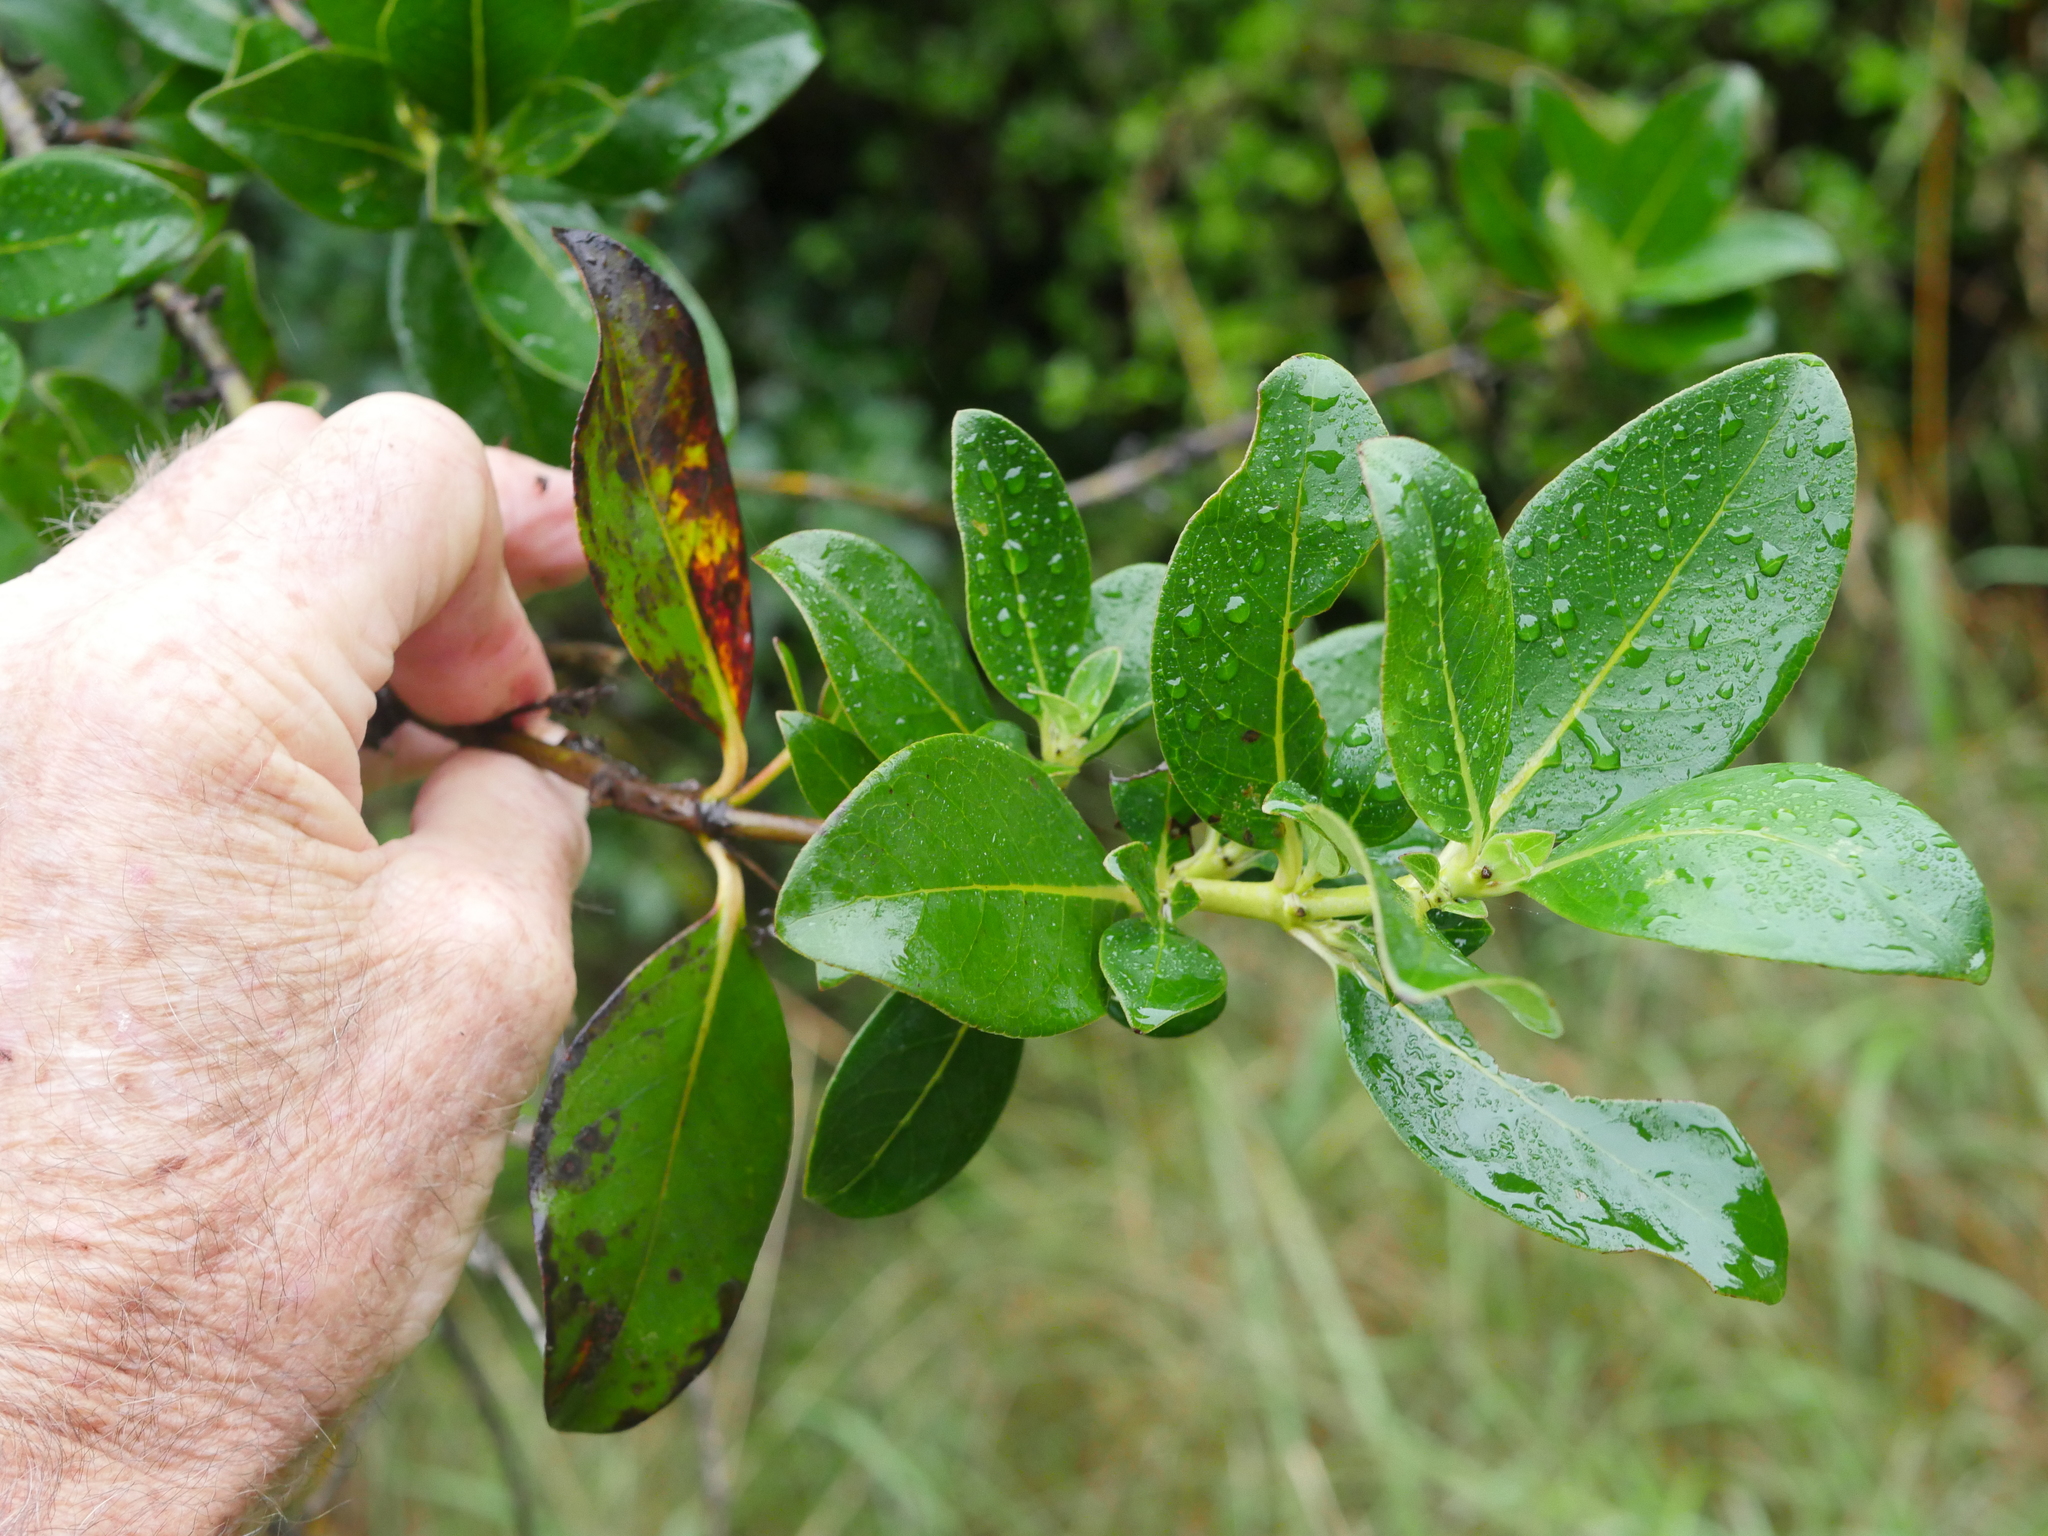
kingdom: Plantae
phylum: Tracheophyta
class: Magnoliopsida
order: Gentianales
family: Rubiaceae
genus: Coprosma
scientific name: Coprosma robusta
